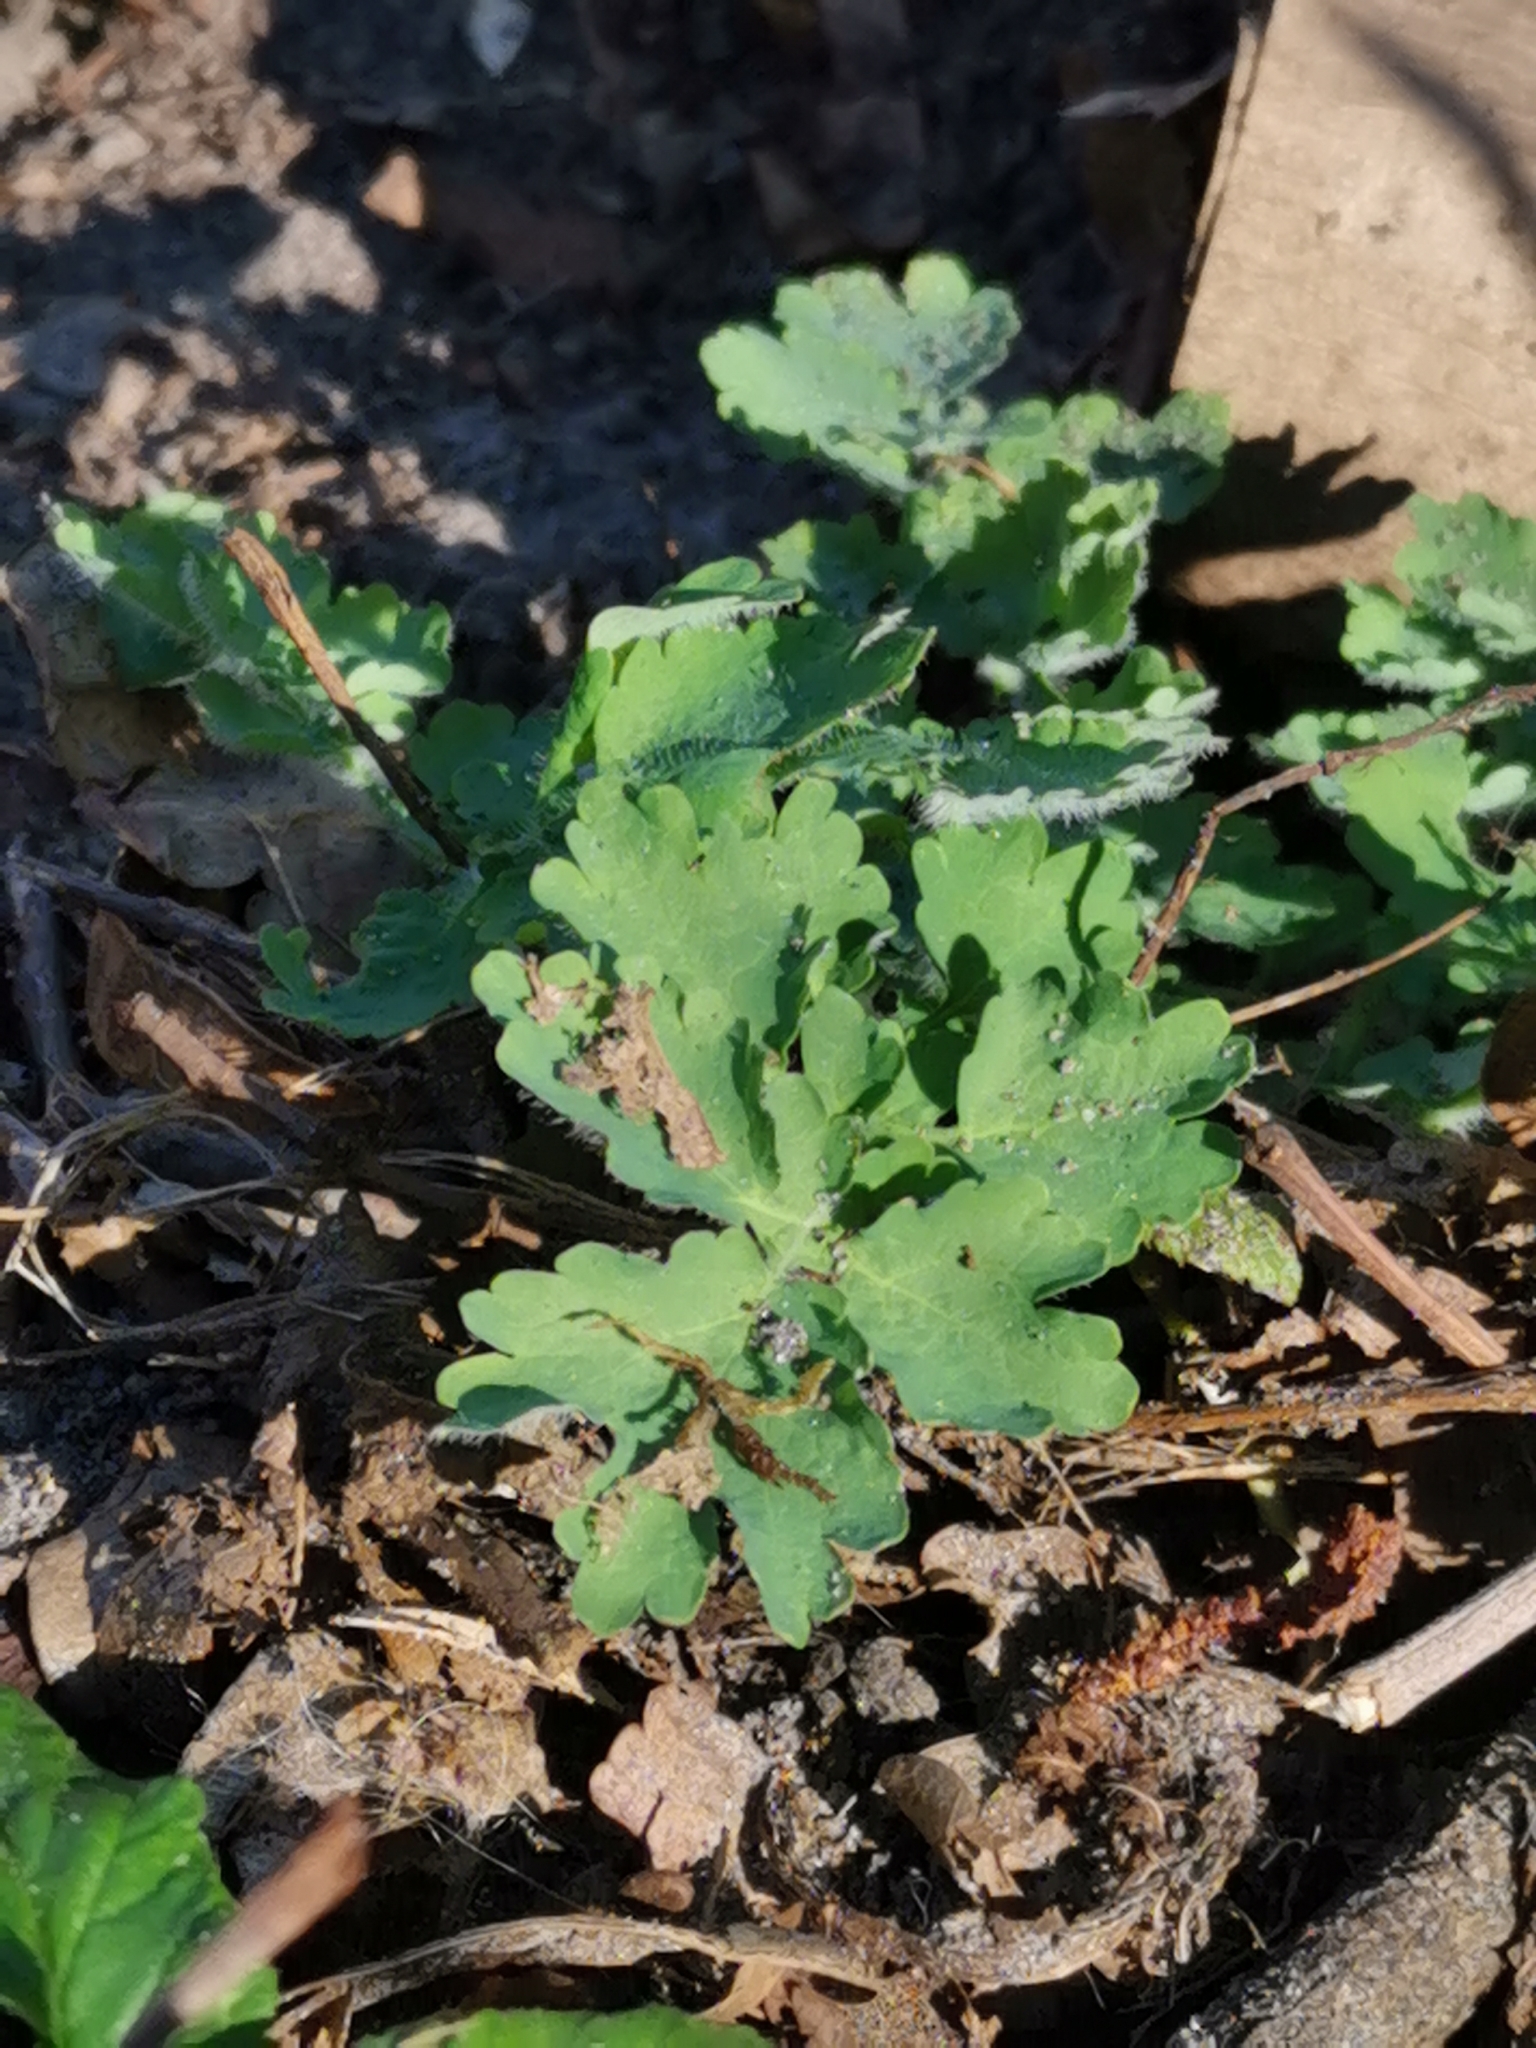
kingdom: Plantae
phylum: Tracheophyta
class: Magnoliopsida
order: Ranunculales
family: Papaveraceae
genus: Chelidonium
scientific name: Chelidonium majus
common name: Greater celandine
